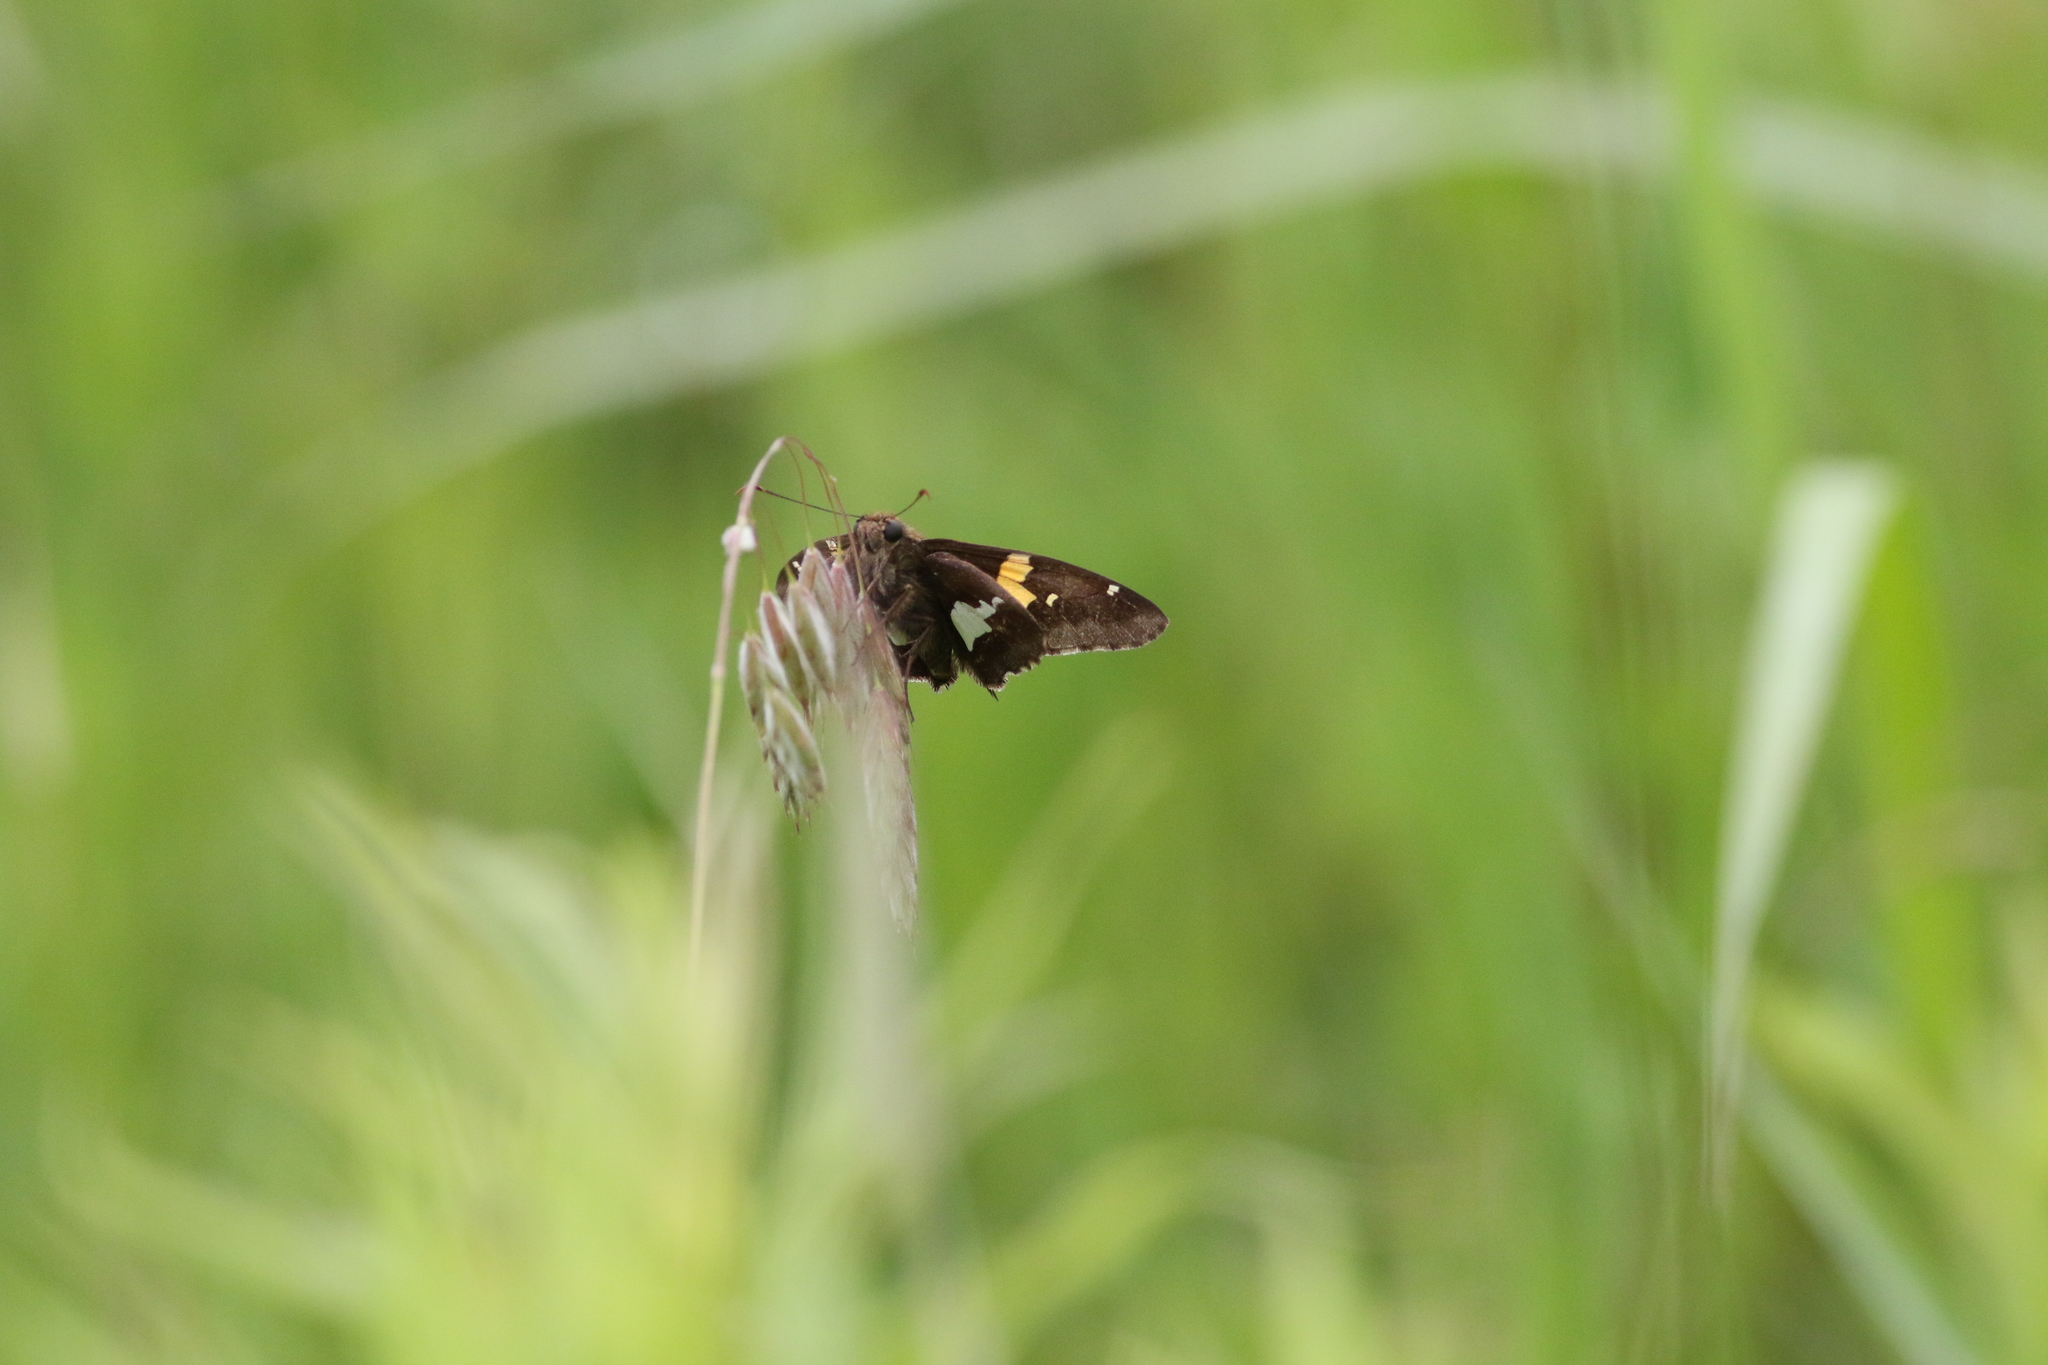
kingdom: Animalia
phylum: Arthropoda
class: Insecta
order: Lepidoptera
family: Hesperiidae
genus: Epargyreus
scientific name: Epargyreus clarus
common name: Silver-spotted skipper
